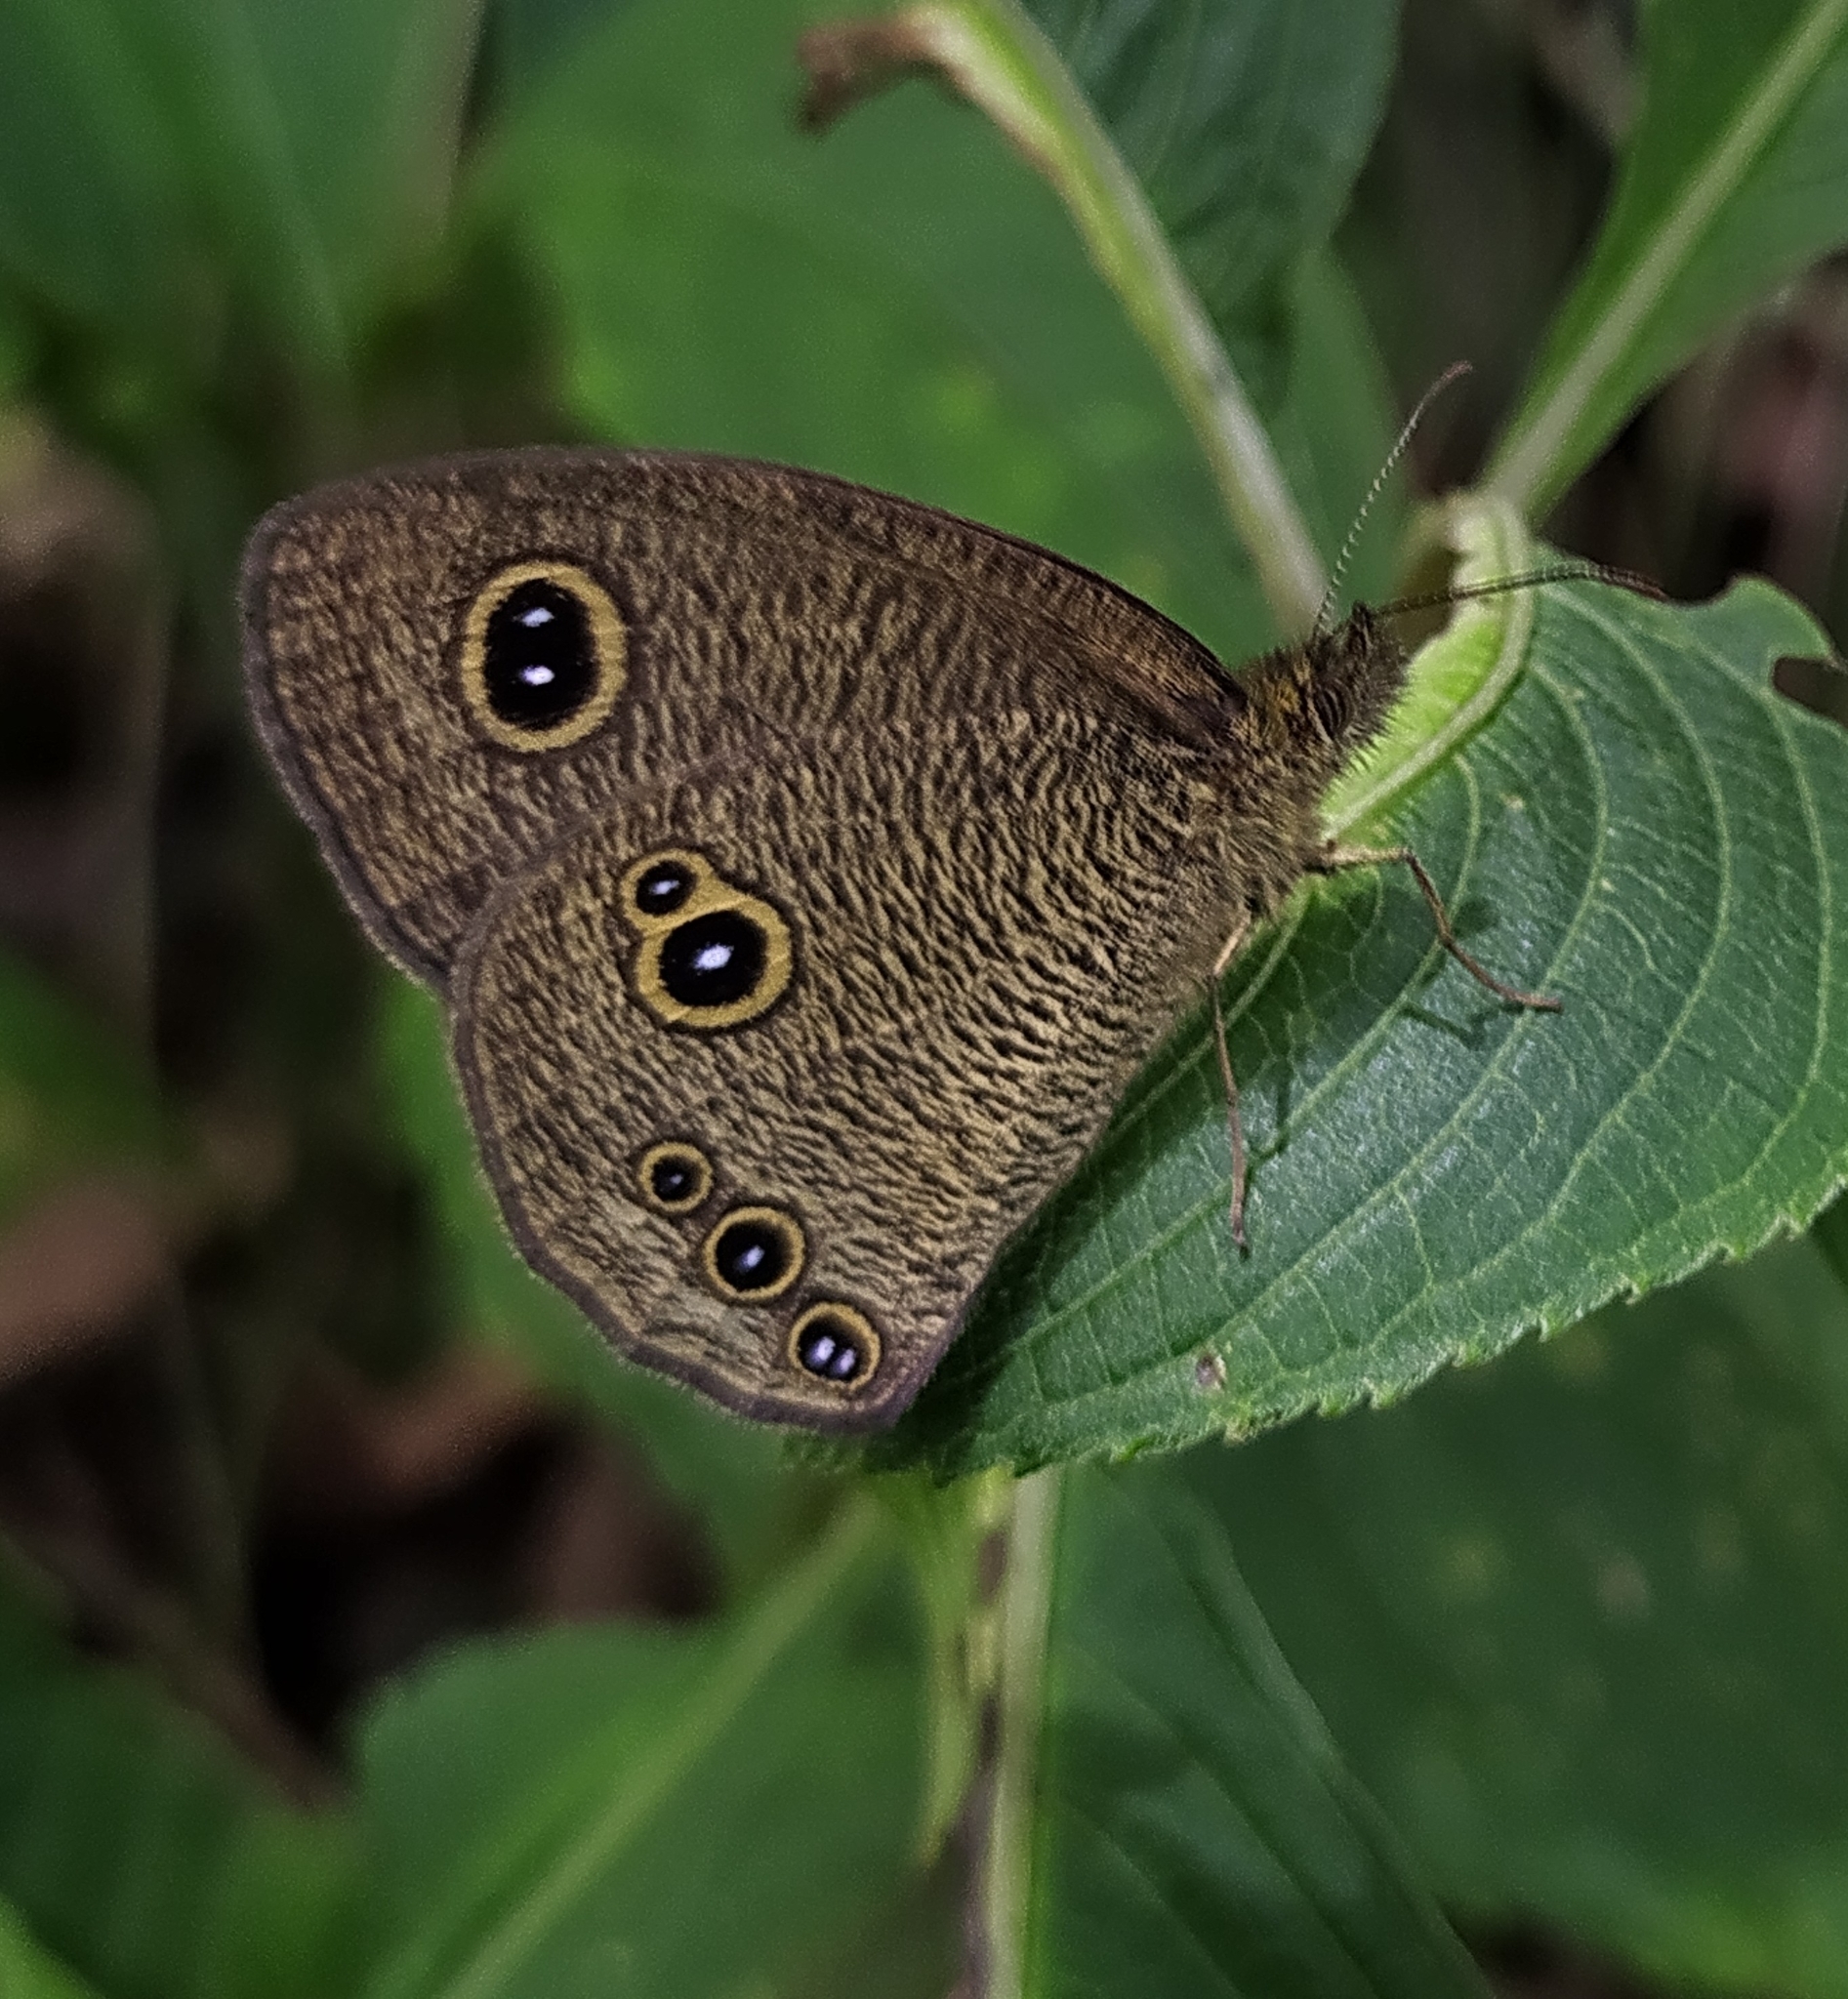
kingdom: Animalia
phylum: Arthropoda
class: Insecta
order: Lepidoptera
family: Nymphalidae
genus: Ypthima
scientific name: Ypthima nikaea
